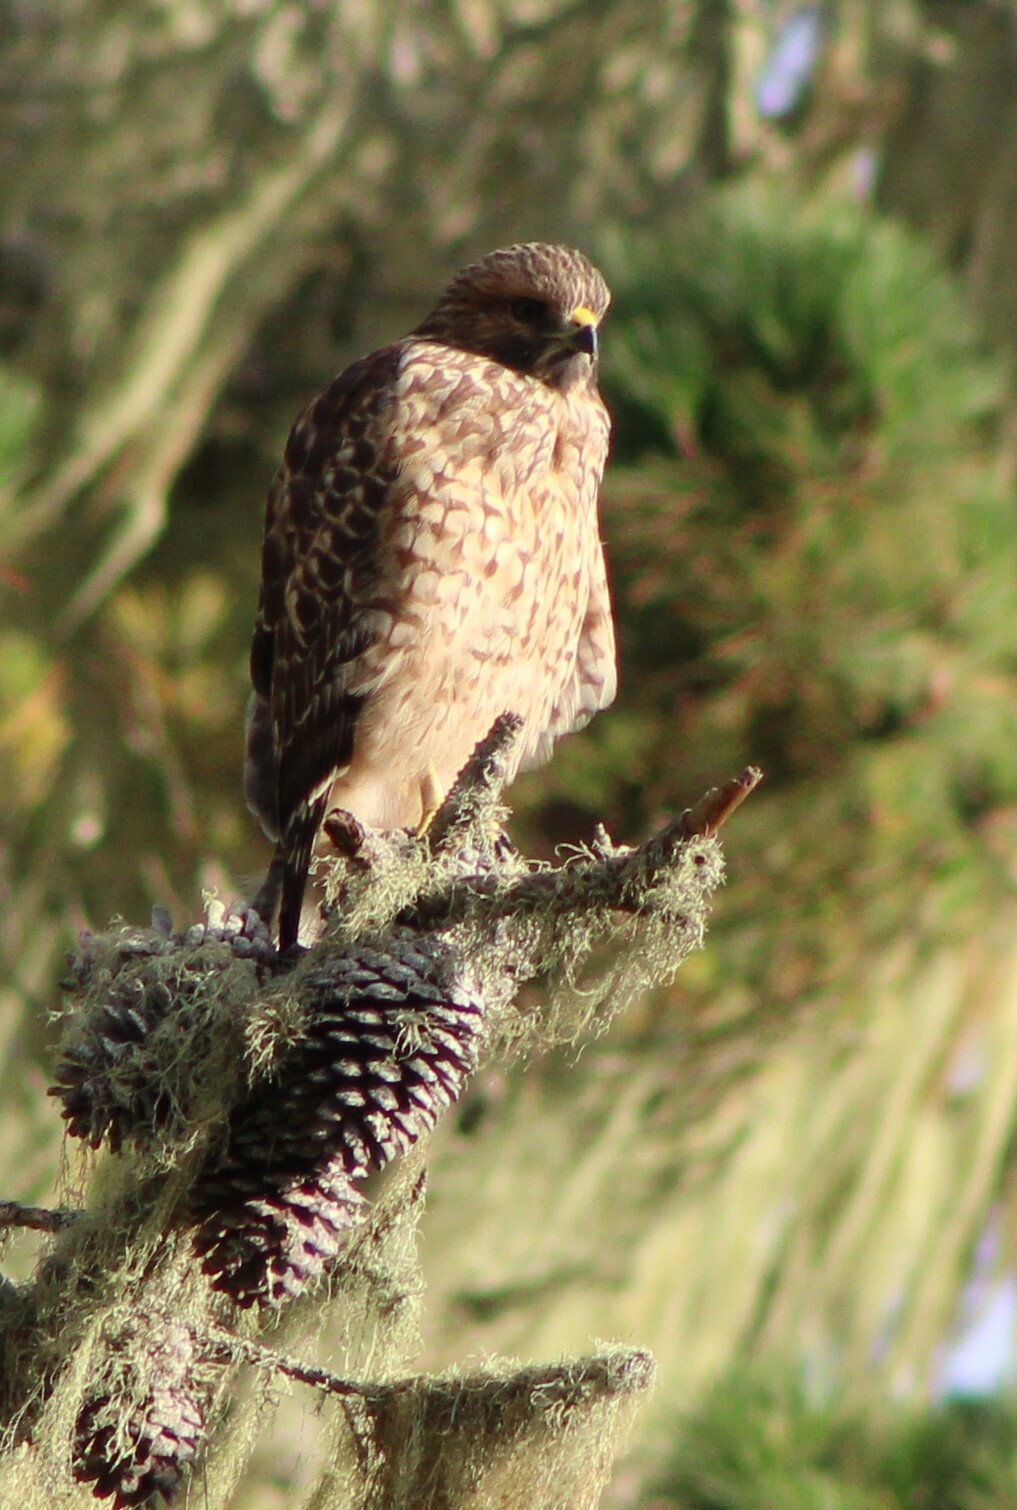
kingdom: Animalia
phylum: Chordata
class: Aves
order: Accipitriformes
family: Accipitridae
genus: Buteo
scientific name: Buteo lineatus
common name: Red-shouldered hawk
